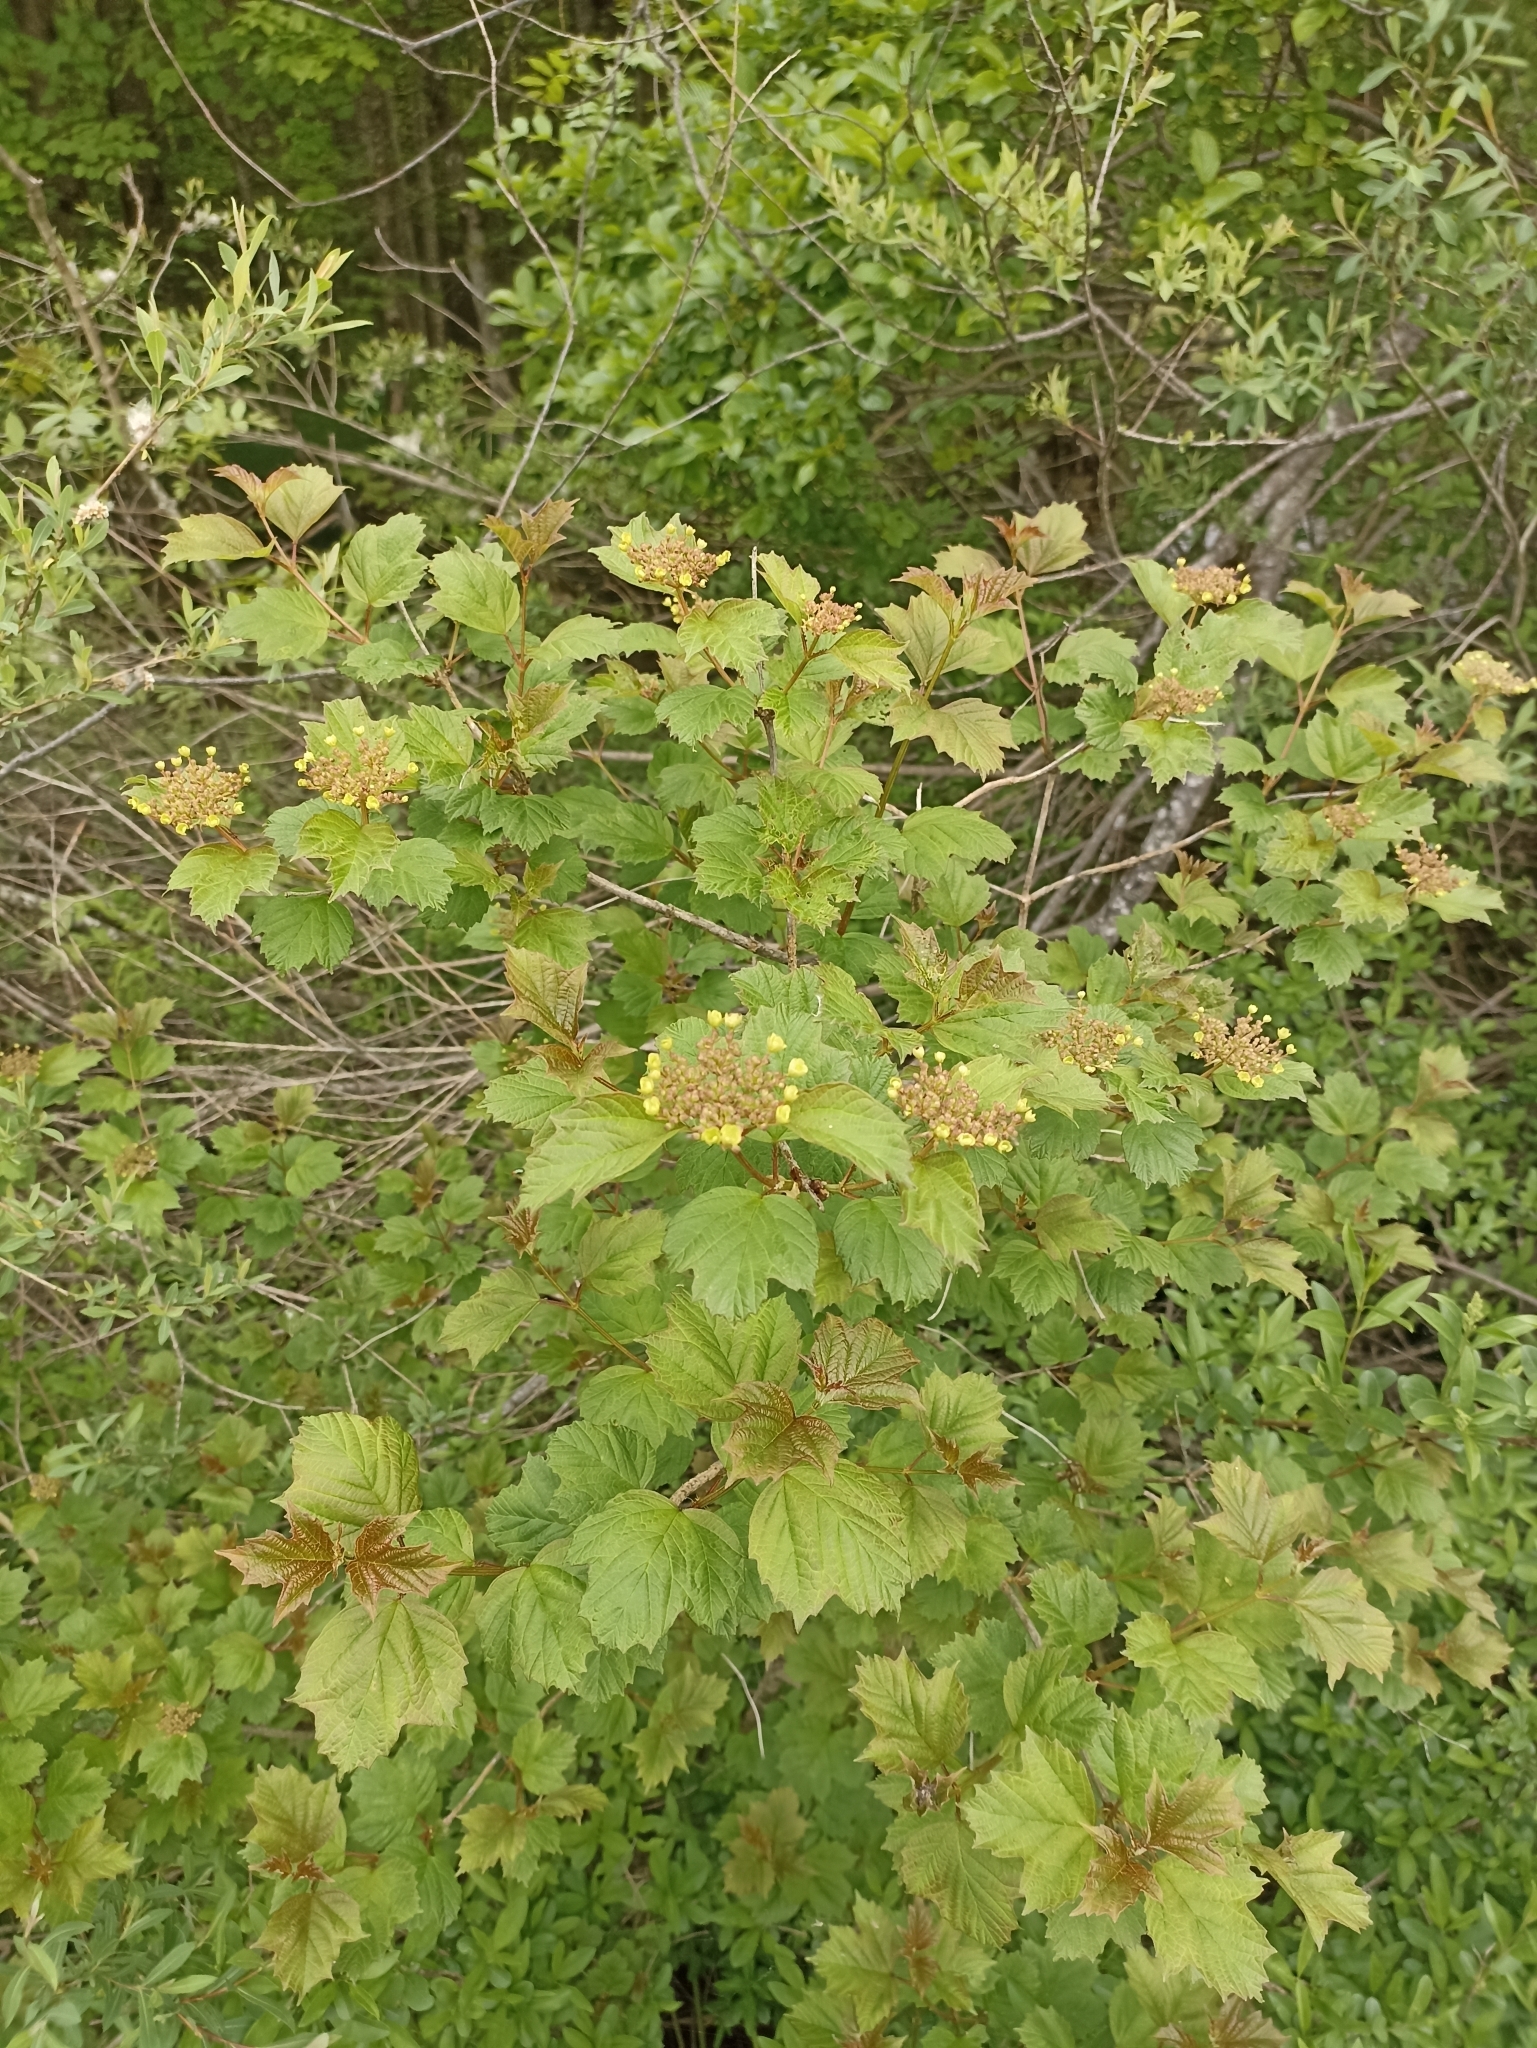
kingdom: Plantae
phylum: Tracheophyta
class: Magnoliopsida
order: Dipsacales
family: Viburnaceae
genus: Viburnum
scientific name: Viburnum opulus
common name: Guelder-rose
